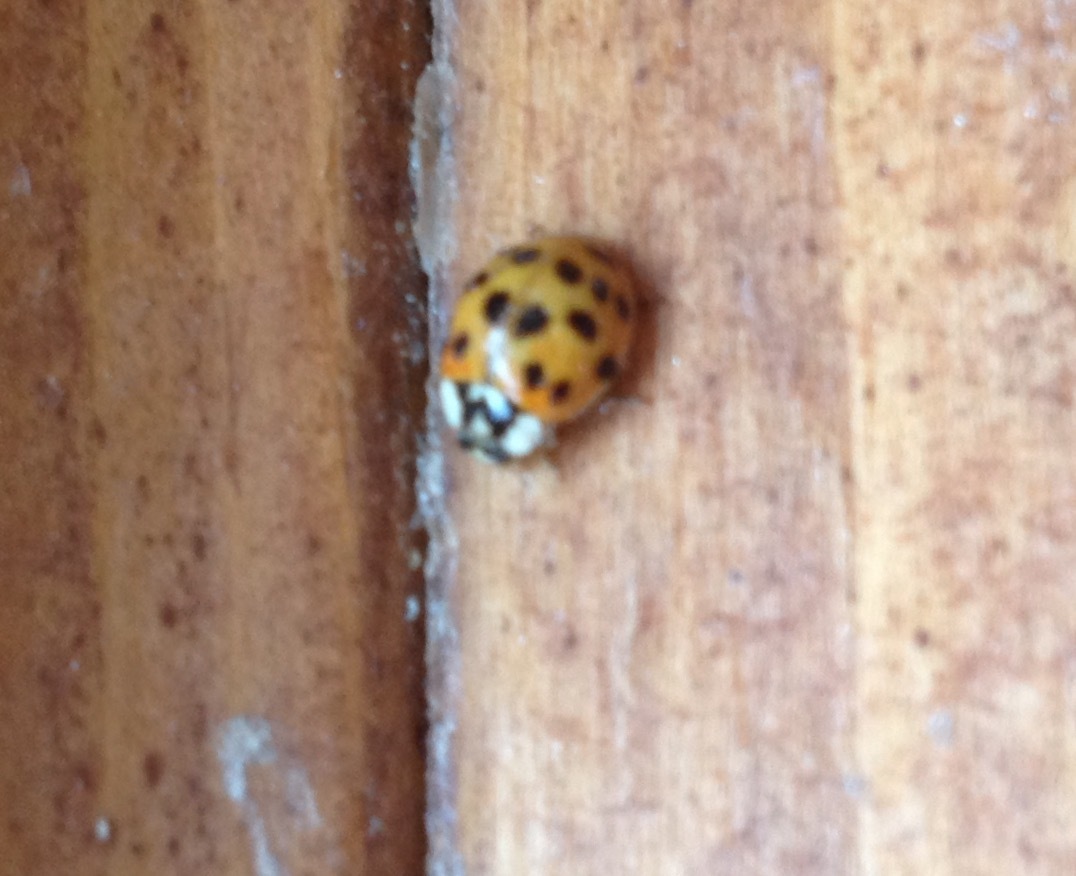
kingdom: Animalia
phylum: Arthropoda
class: Insecta
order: Coleoptera
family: Coccinellidae
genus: Harmonia
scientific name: Harmonia axyridis
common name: Harlequin ladybird
